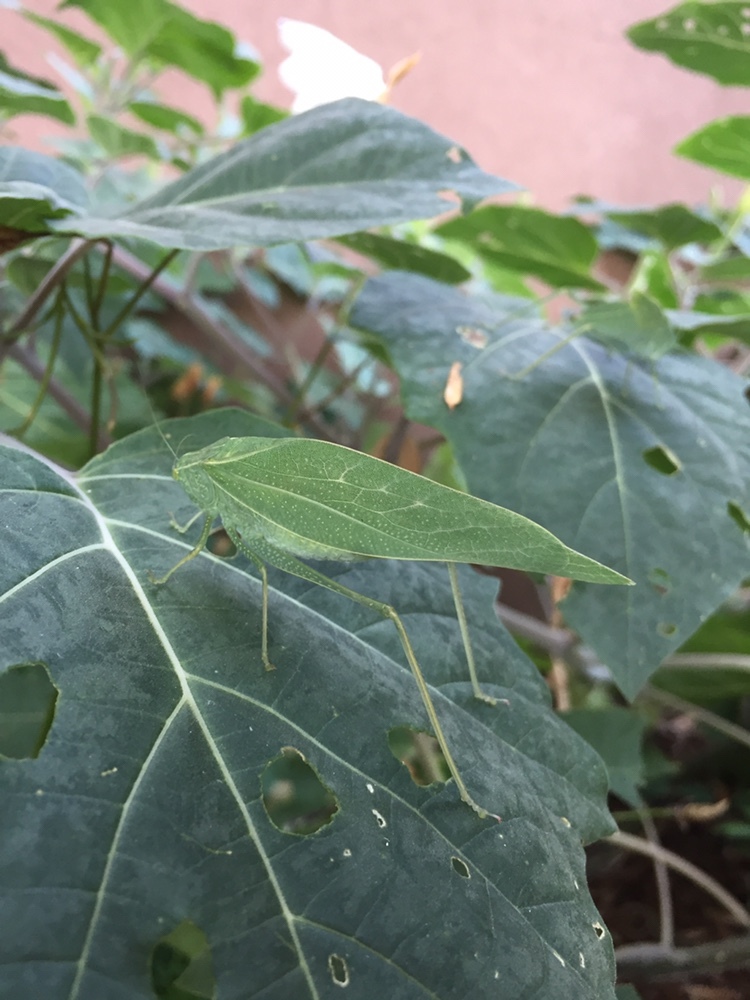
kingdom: Animalia
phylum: Arthropoda
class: Insecta
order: Orthoptera
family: Tettigoniidae
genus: Microcentrum
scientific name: Microcentrum rhombifolium
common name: Broad-winged katydid
